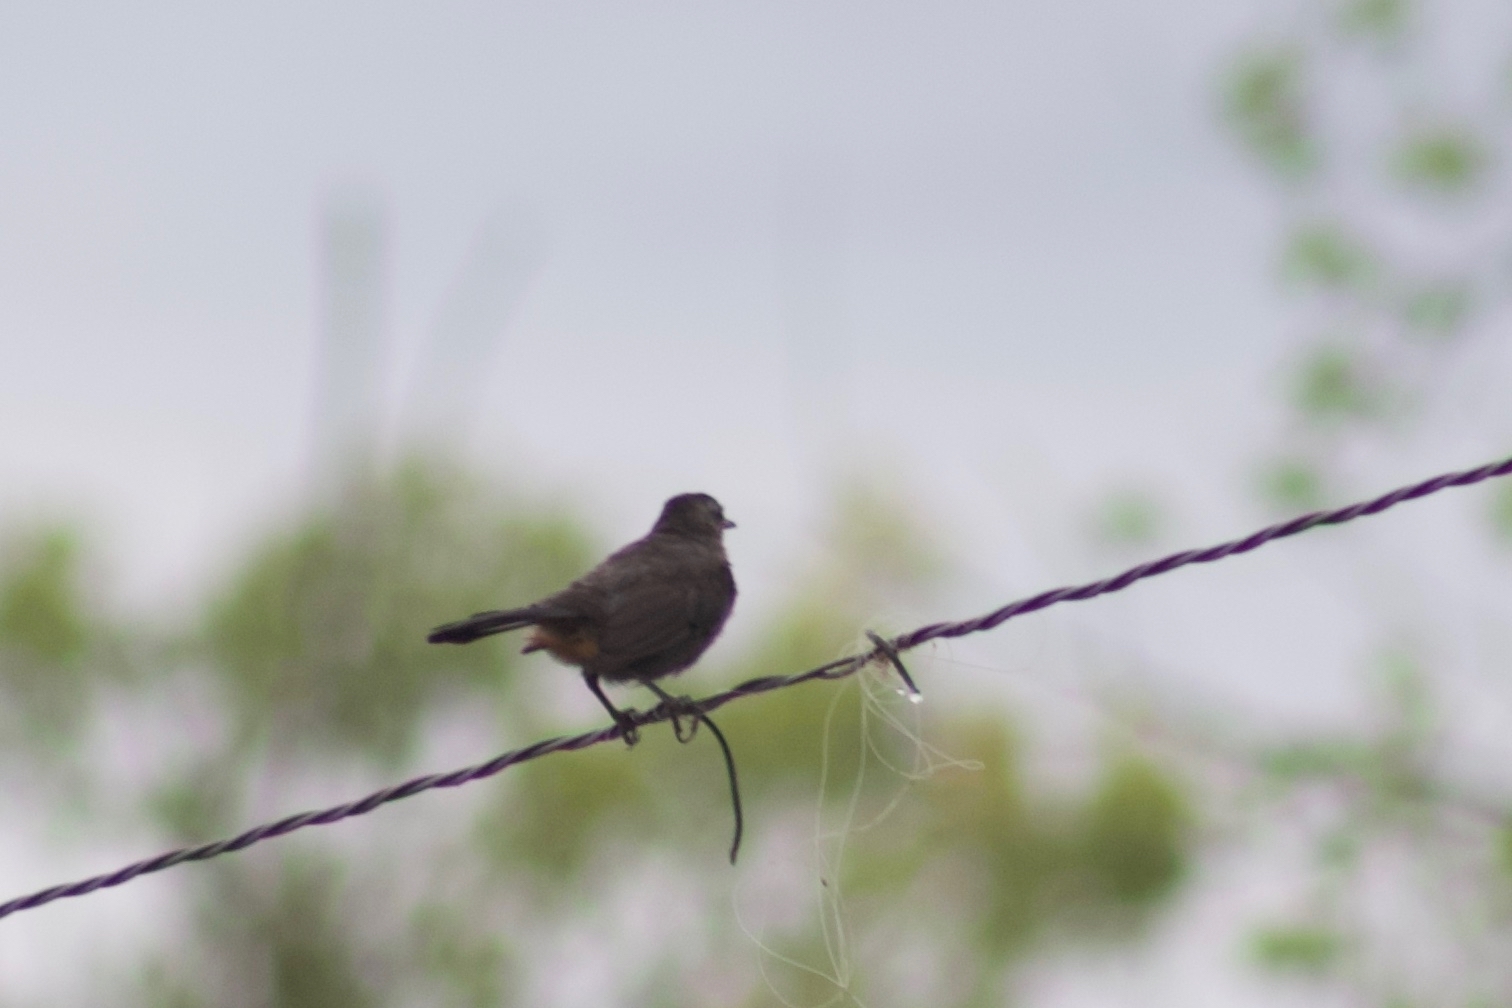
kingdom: Animalia
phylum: Chordata
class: Aves
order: Passeriformes
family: Mimidae
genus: Dumetella
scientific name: Dumetella carolinensis
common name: Gray catbird
